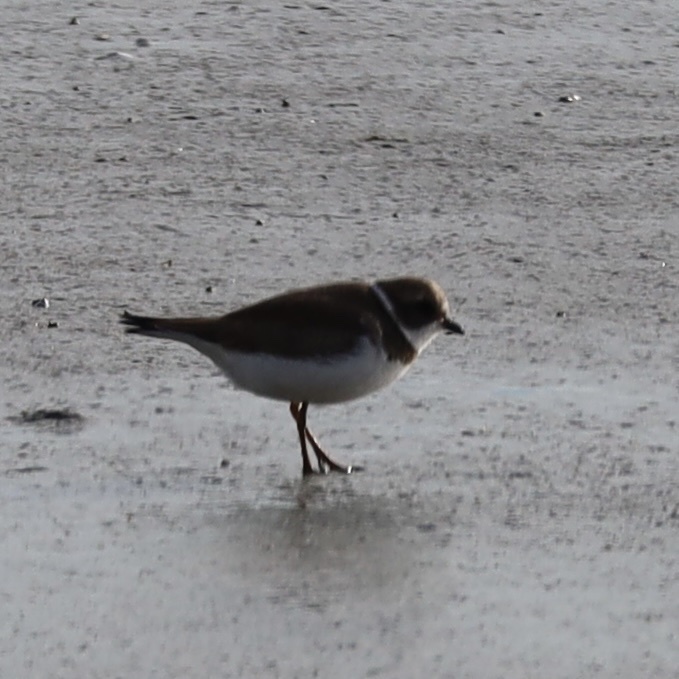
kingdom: Animalia
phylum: Chordata
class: Aves
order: Charadriiformes
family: Charadriidae
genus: Charadrius
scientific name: Charadrius semipalmatus
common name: Semipalmated plover
